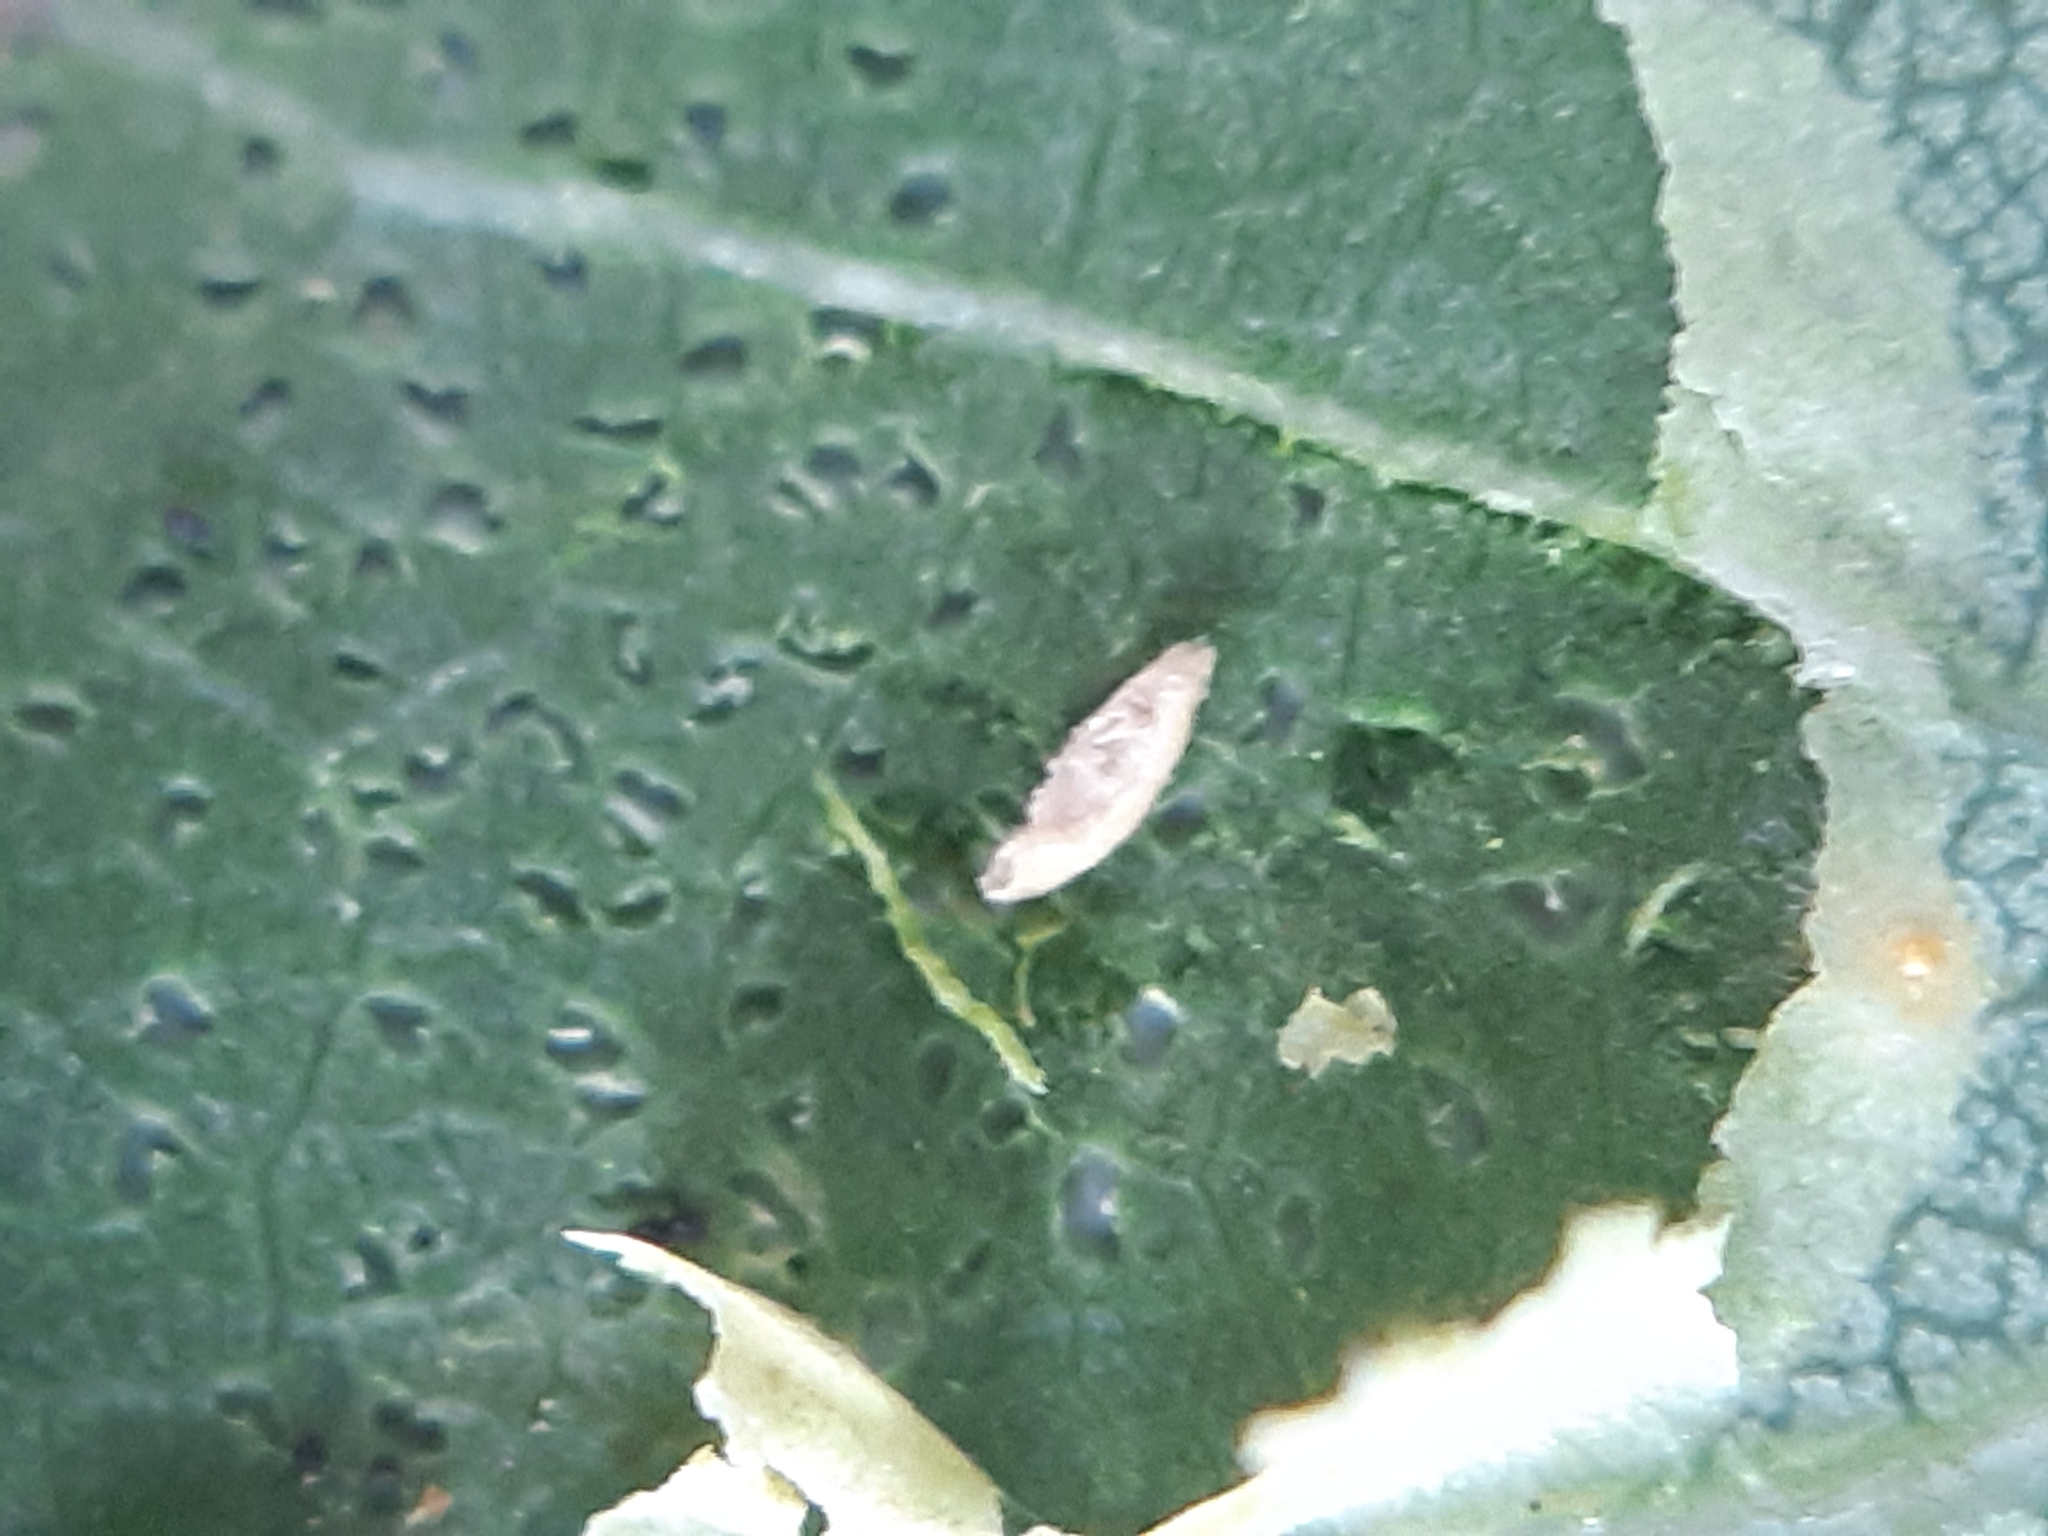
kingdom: Animalia
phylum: Arthropoda
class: Insecta
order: Lepidoptera
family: Gracillariidae
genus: Phyllonorycter
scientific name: Phyllonorycter sagitella
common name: Scarce aspen midget
